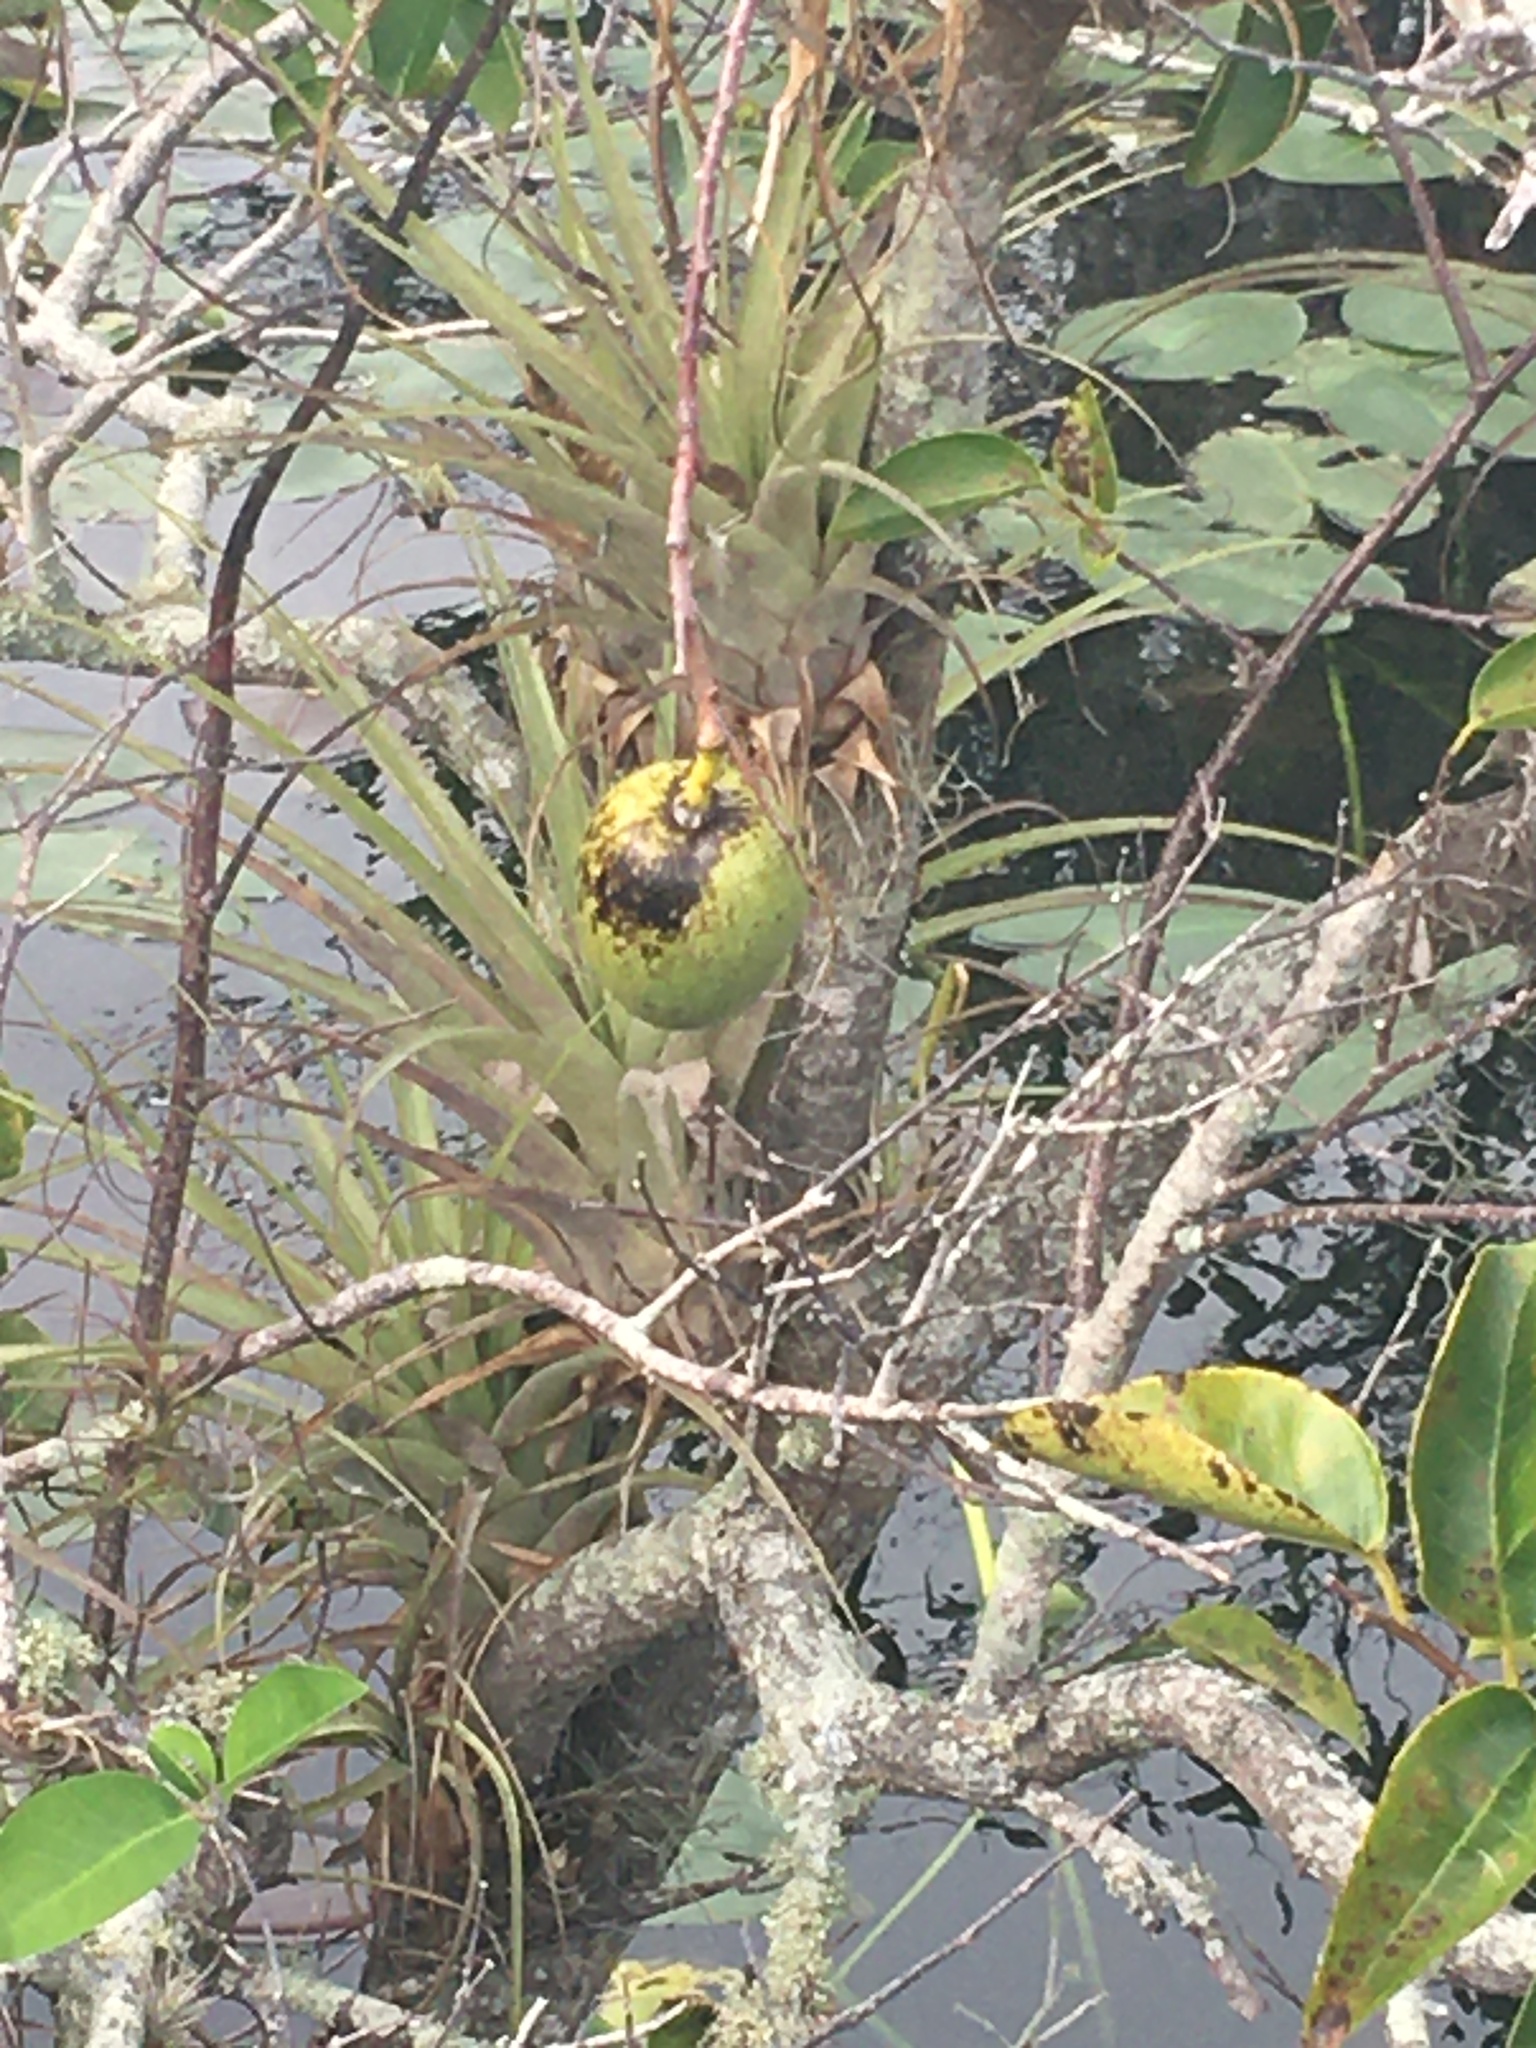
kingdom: Plantae
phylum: Tracheophyta
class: Magnoliopsida
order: Magnoliales
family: Annonaceae
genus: Annona
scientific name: Annona glabra
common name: Monkey apple
